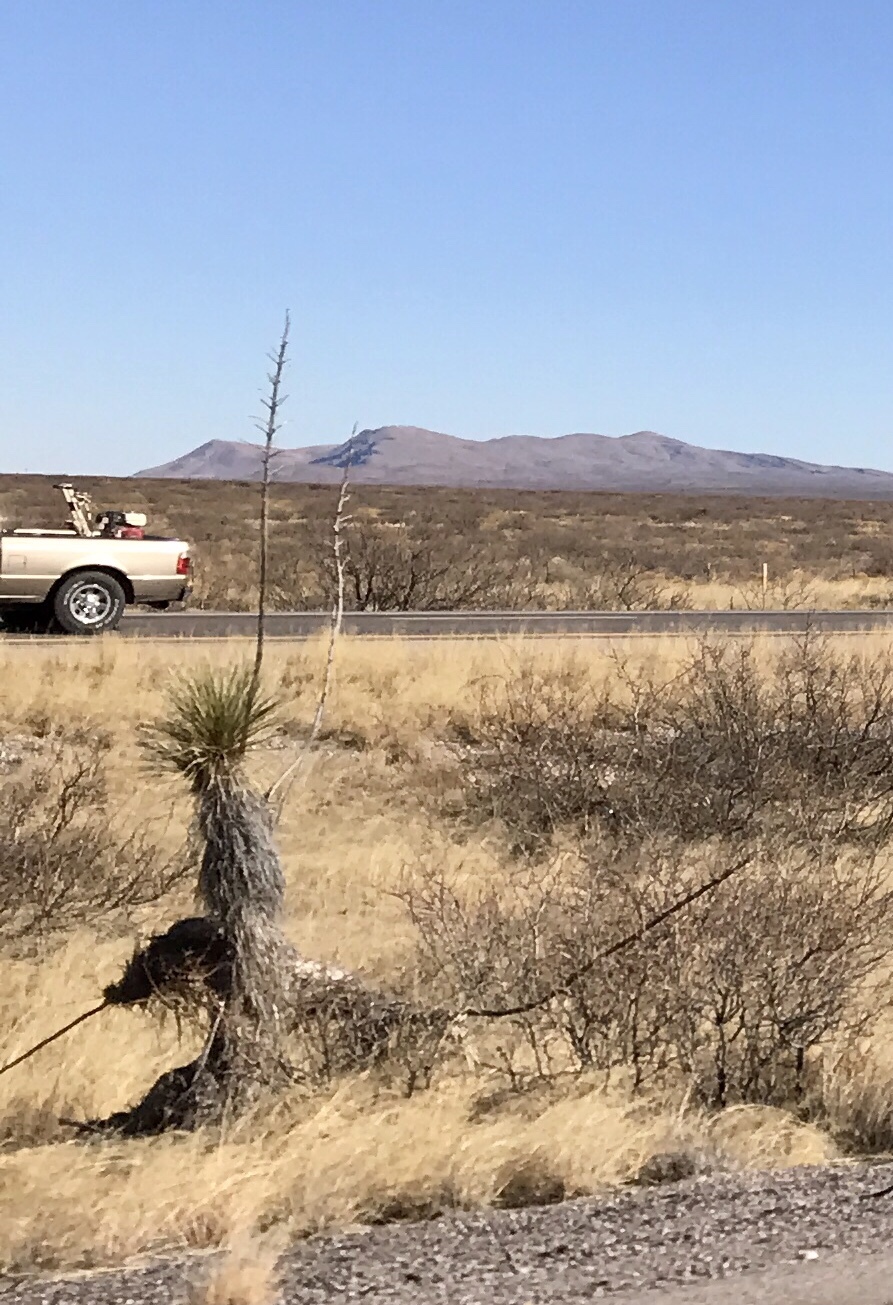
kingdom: Plantae
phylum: Tracheophyta
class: Liliopsida
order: Asparagales
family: Asparagaceae
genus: Yucca
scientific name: Yucca elata
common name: Palmella
